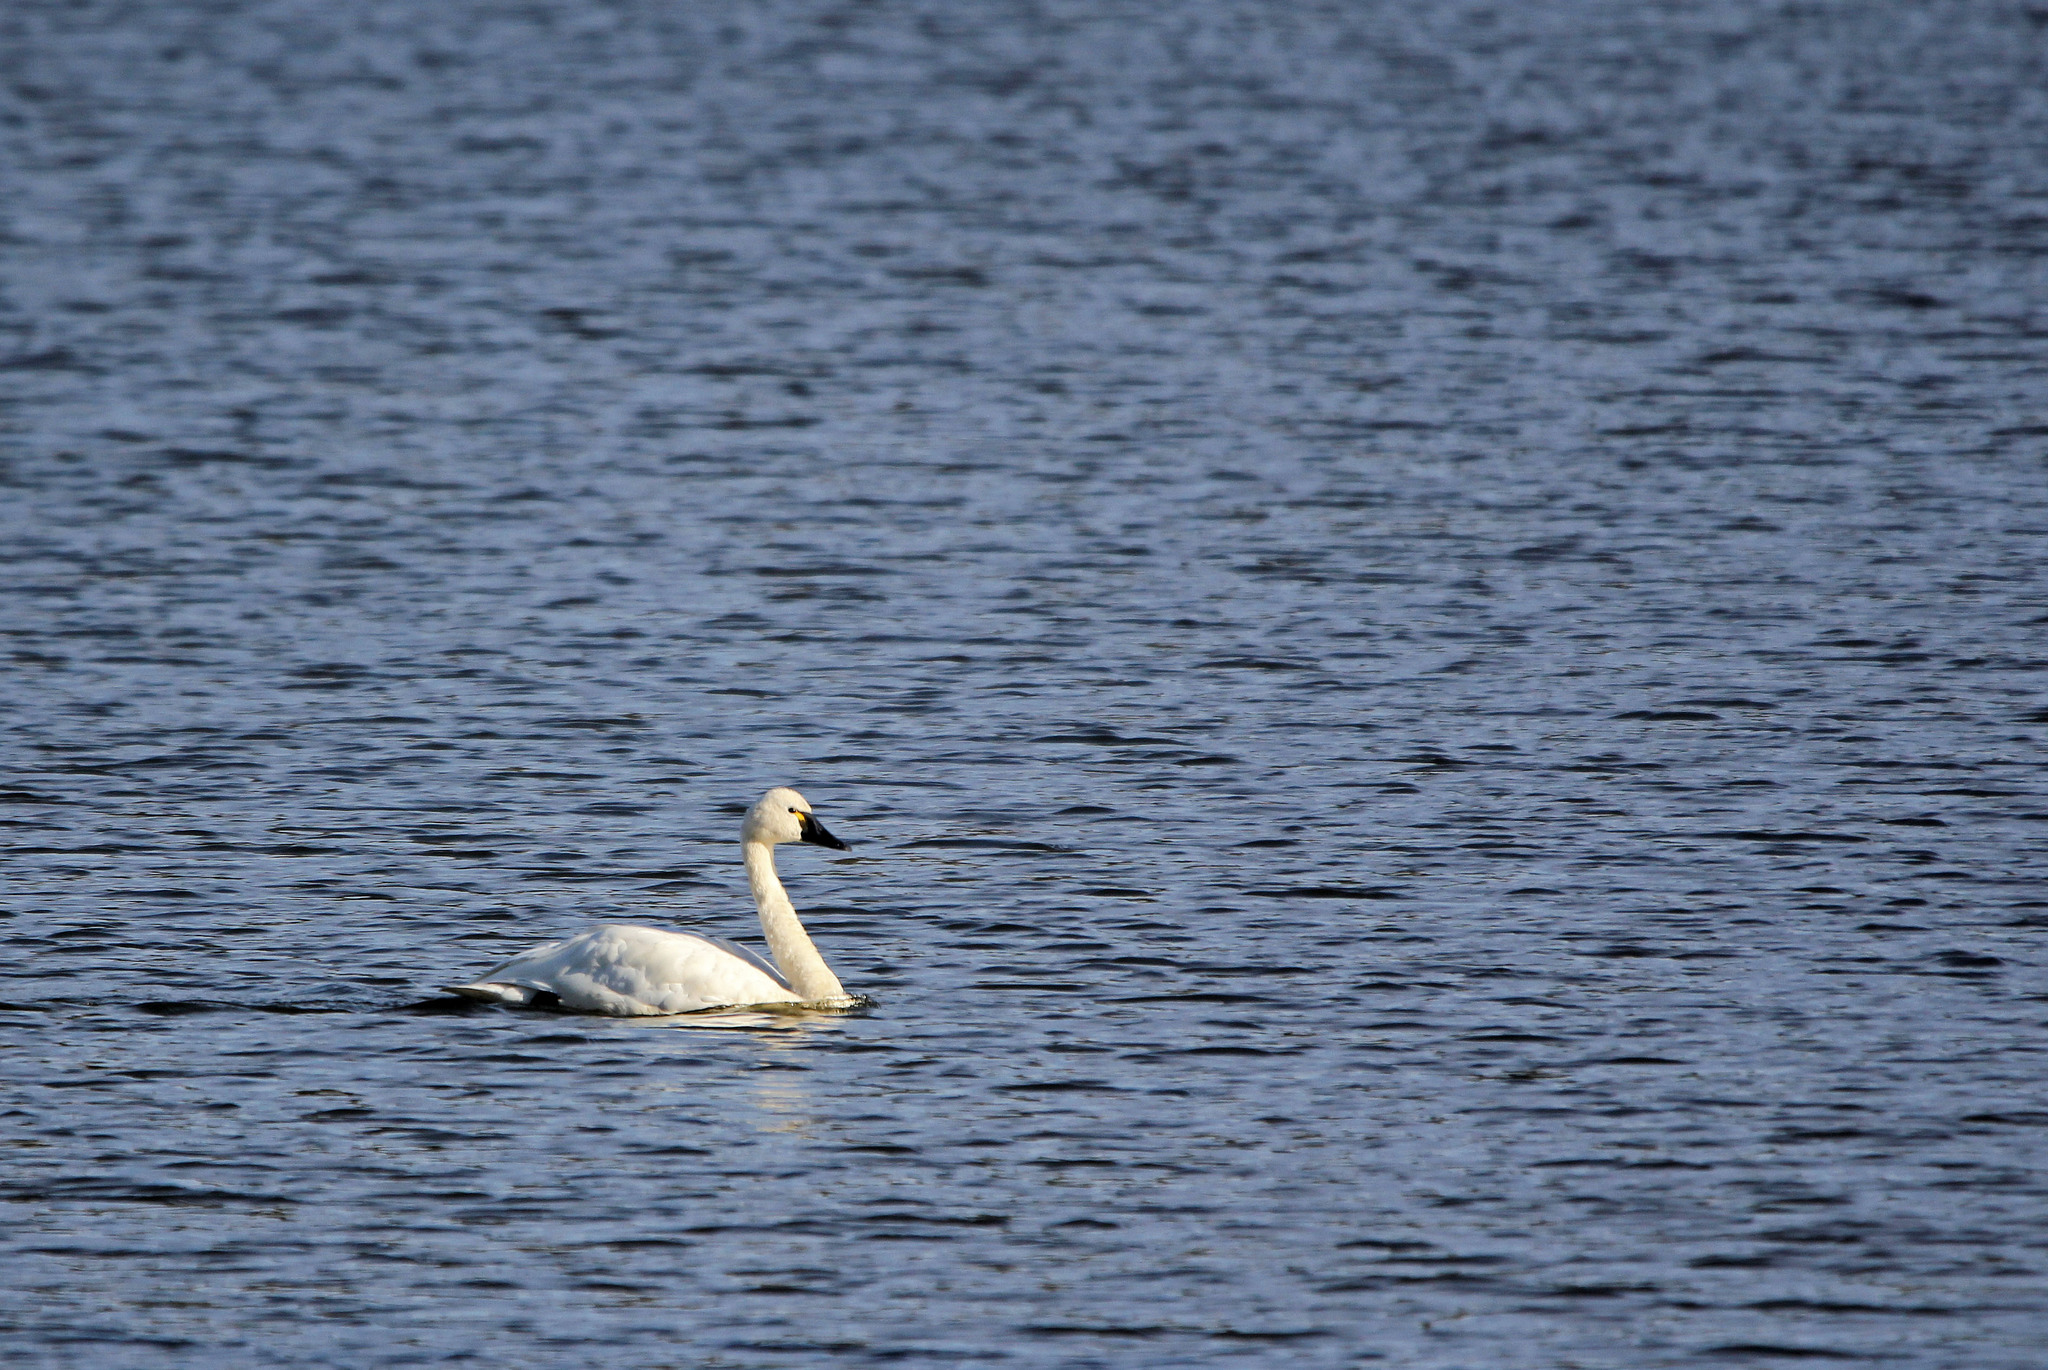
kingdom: Animalia
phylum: Chordata
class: Aves
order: Anseriformes
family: Anatidae
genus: Cygnus
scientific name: Cygnus columbianus
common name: Tundra swan
